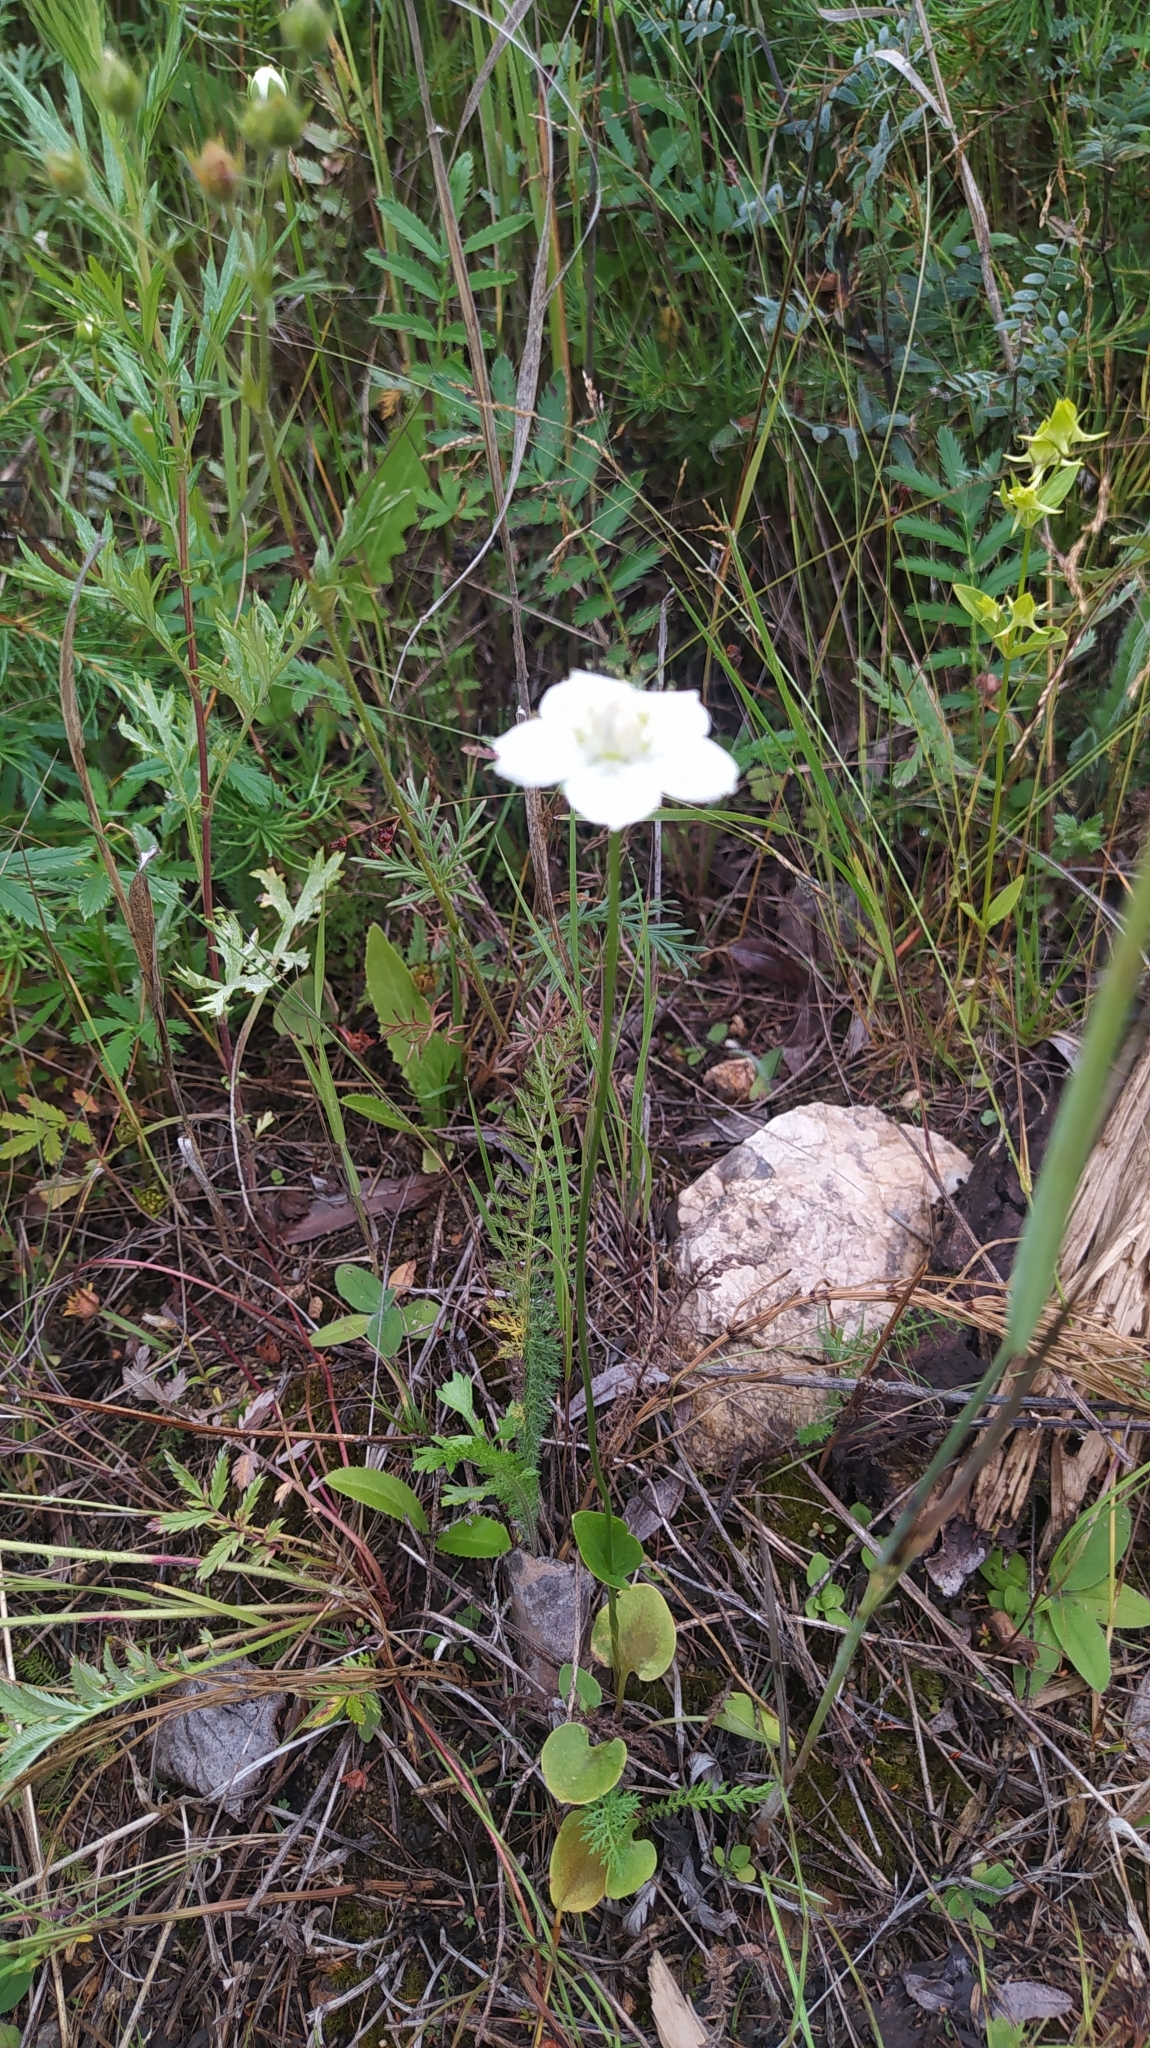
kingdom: Plantae
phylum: Tracheophyta
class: Magnoliopsida
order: Celastrales
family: Parnassiaceae
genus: Parnassia
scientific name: Parnassia palustris
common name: Grass-of-parnassus
